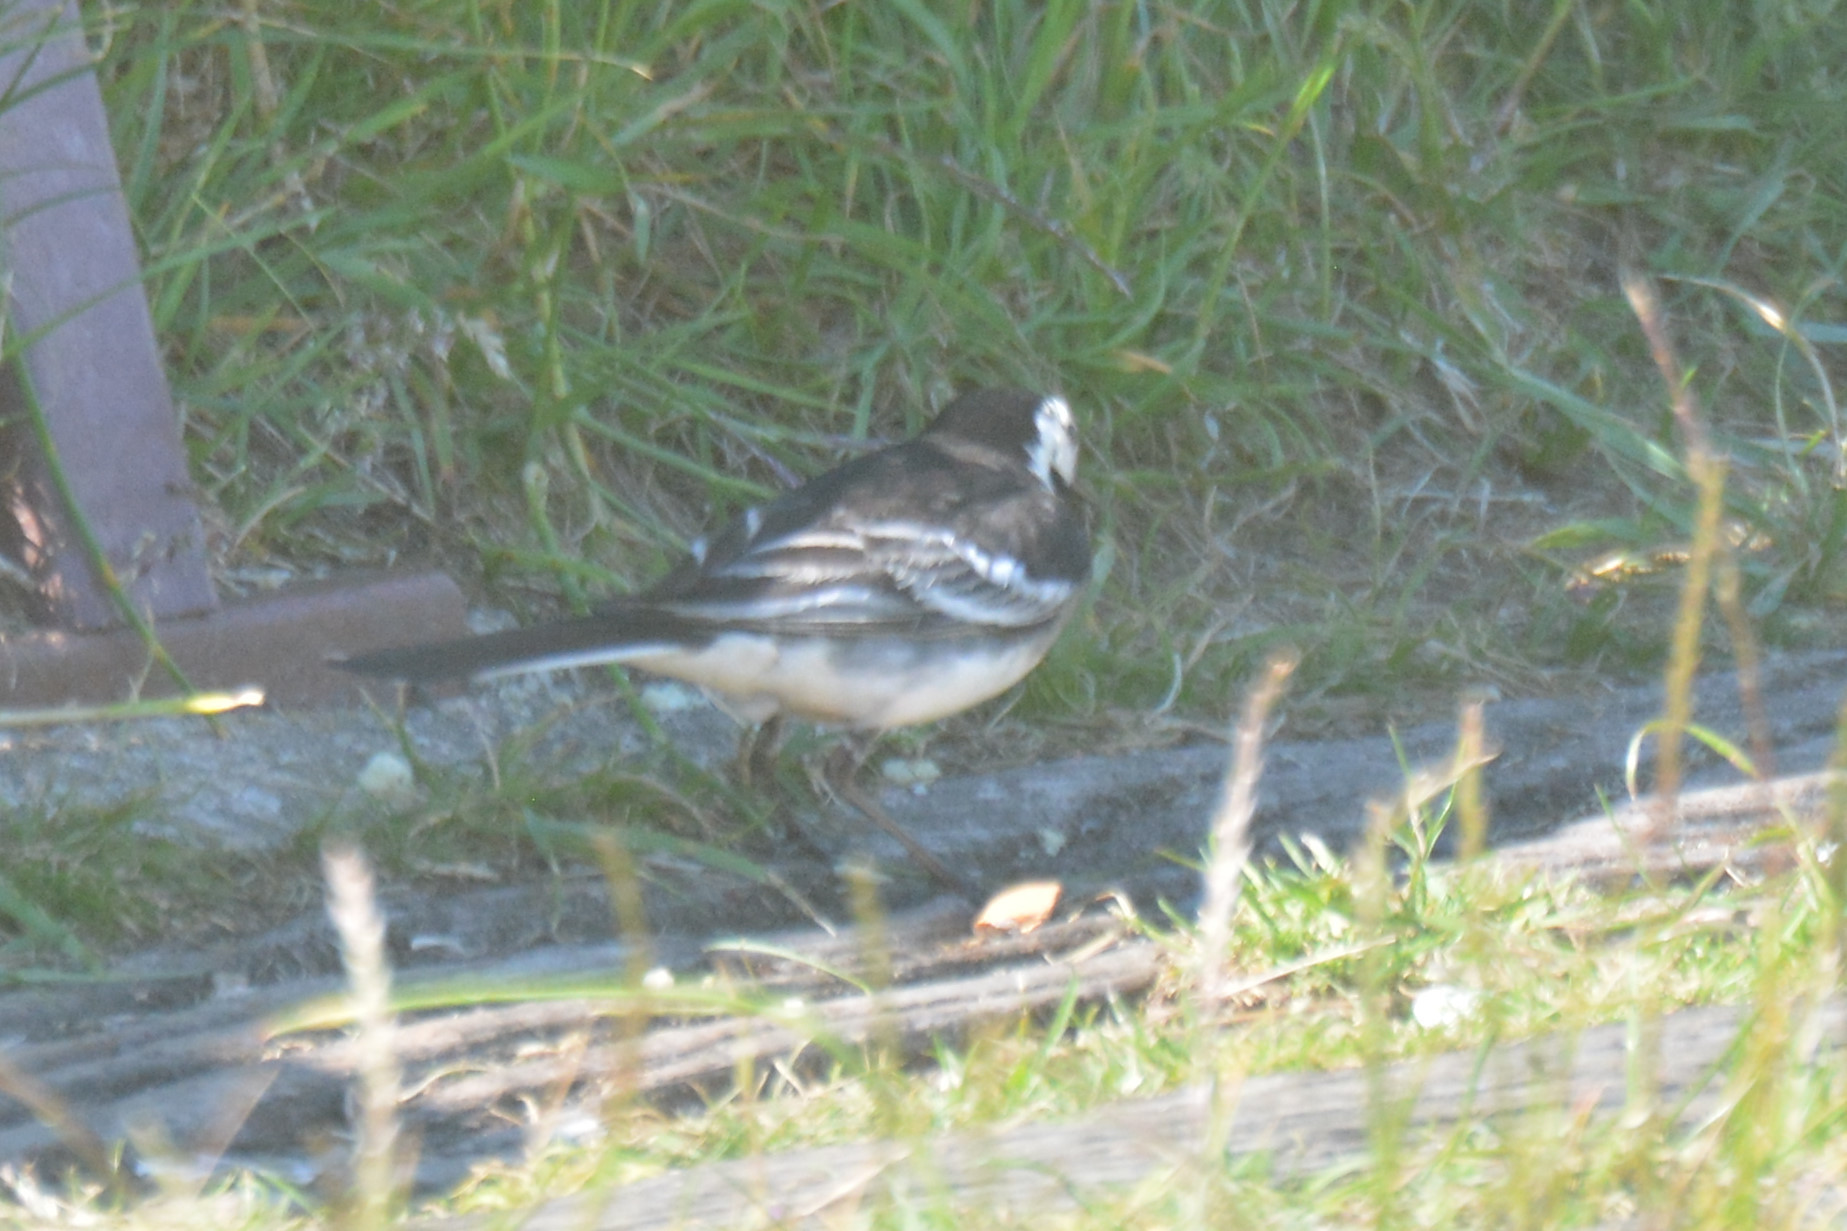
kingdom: Animalia
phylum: Chordata
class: Aves
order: Passeriformes
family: Motacillidae
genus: Motacilla
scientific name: Motacilla alba
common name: White wagtail
